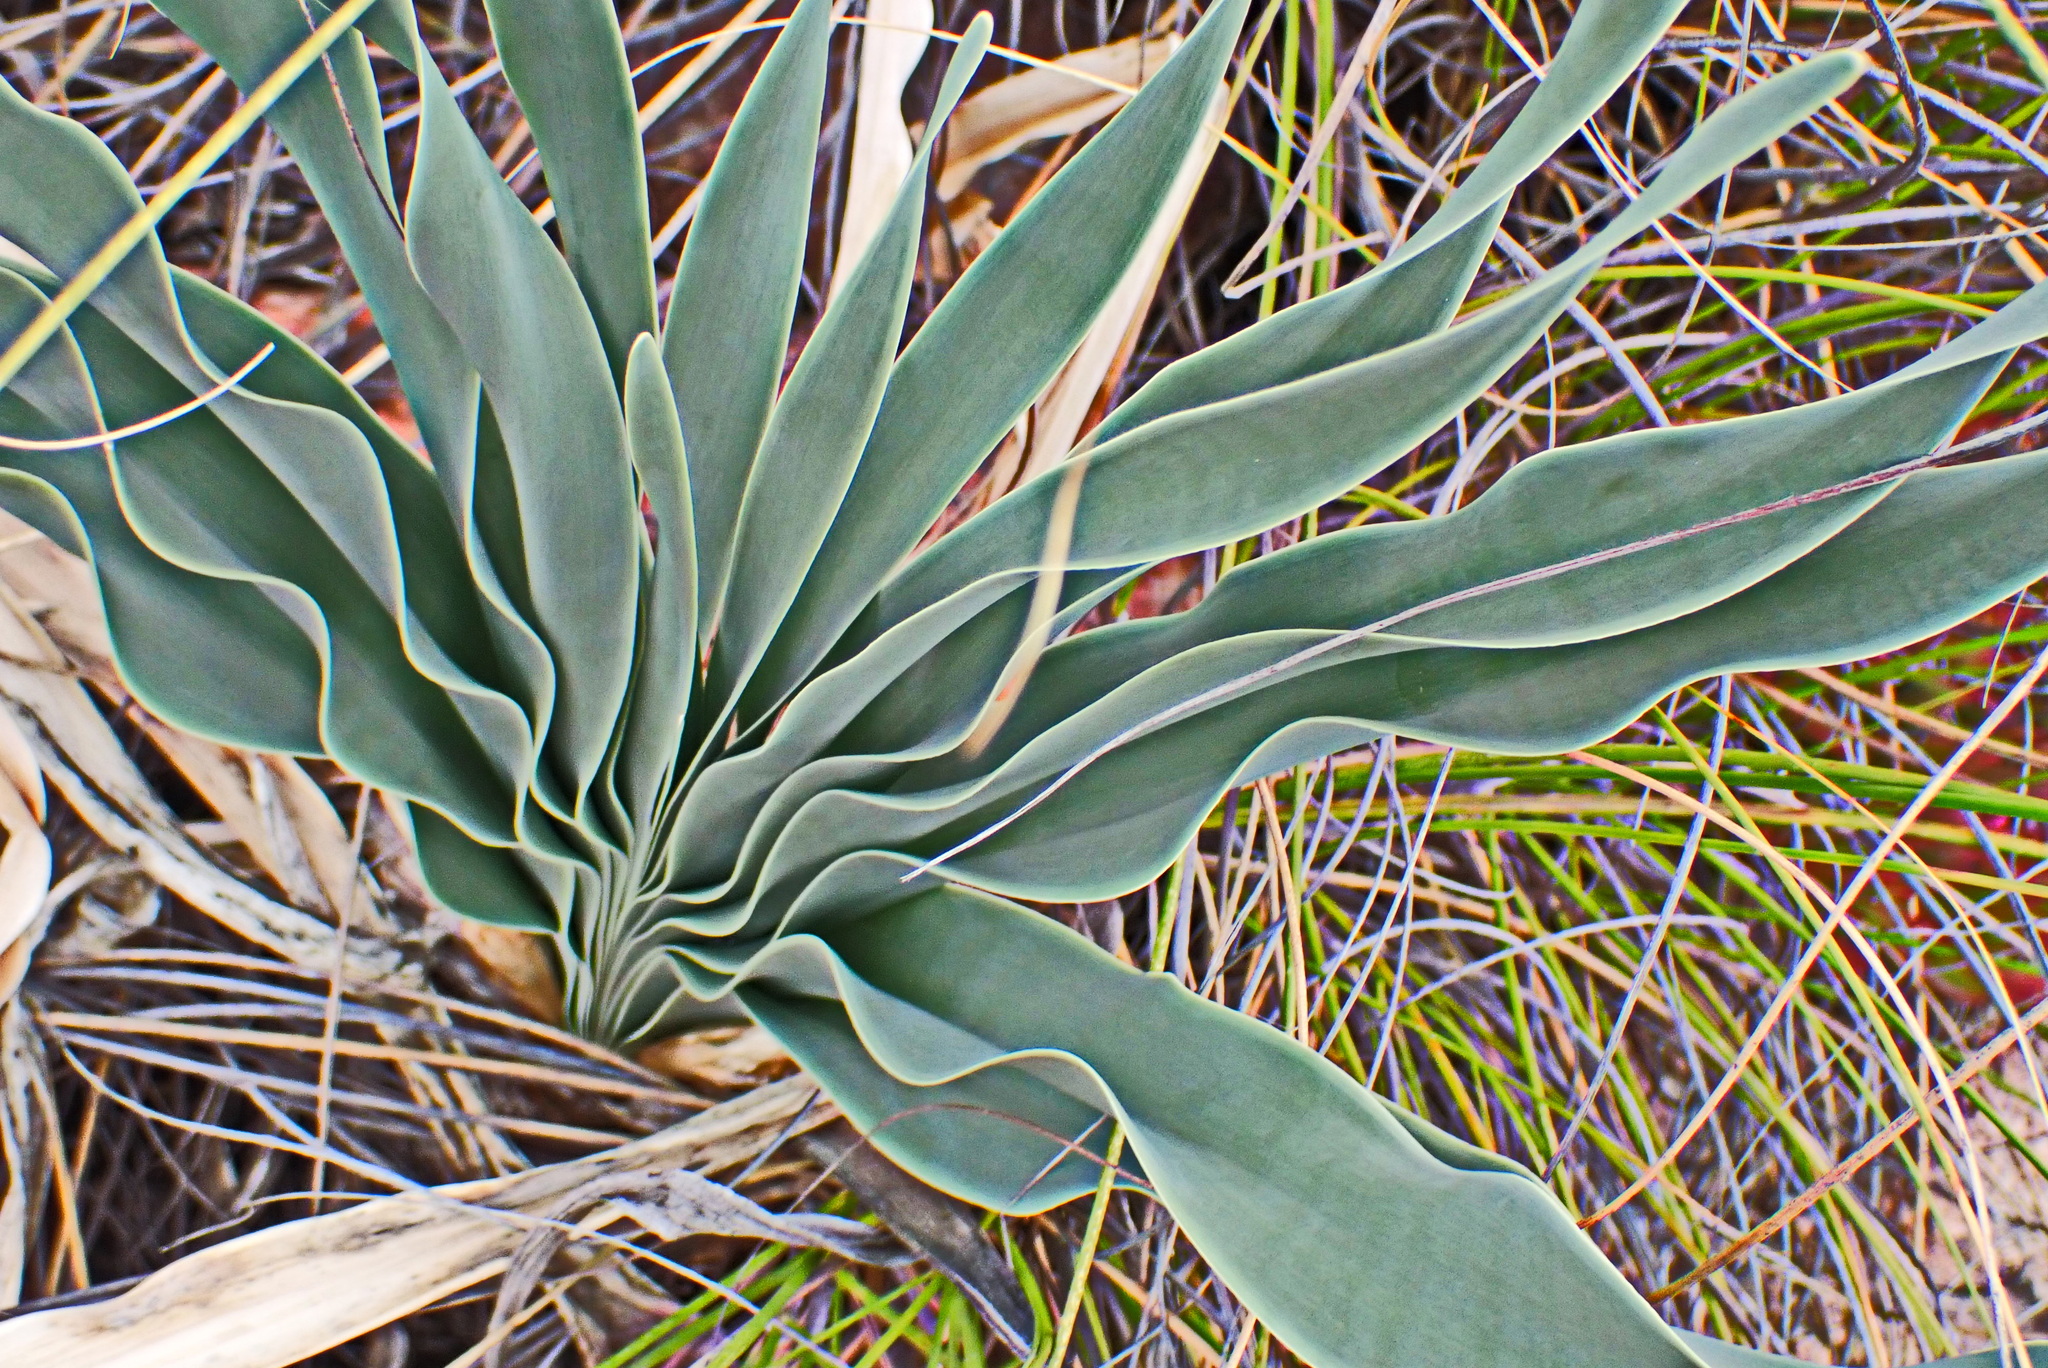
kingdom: Plantae
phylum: Tracheophyta
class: Liliopsida
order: Asparagales
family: Amaryllidaceae
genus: Boophone
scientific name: Boophone disticha
